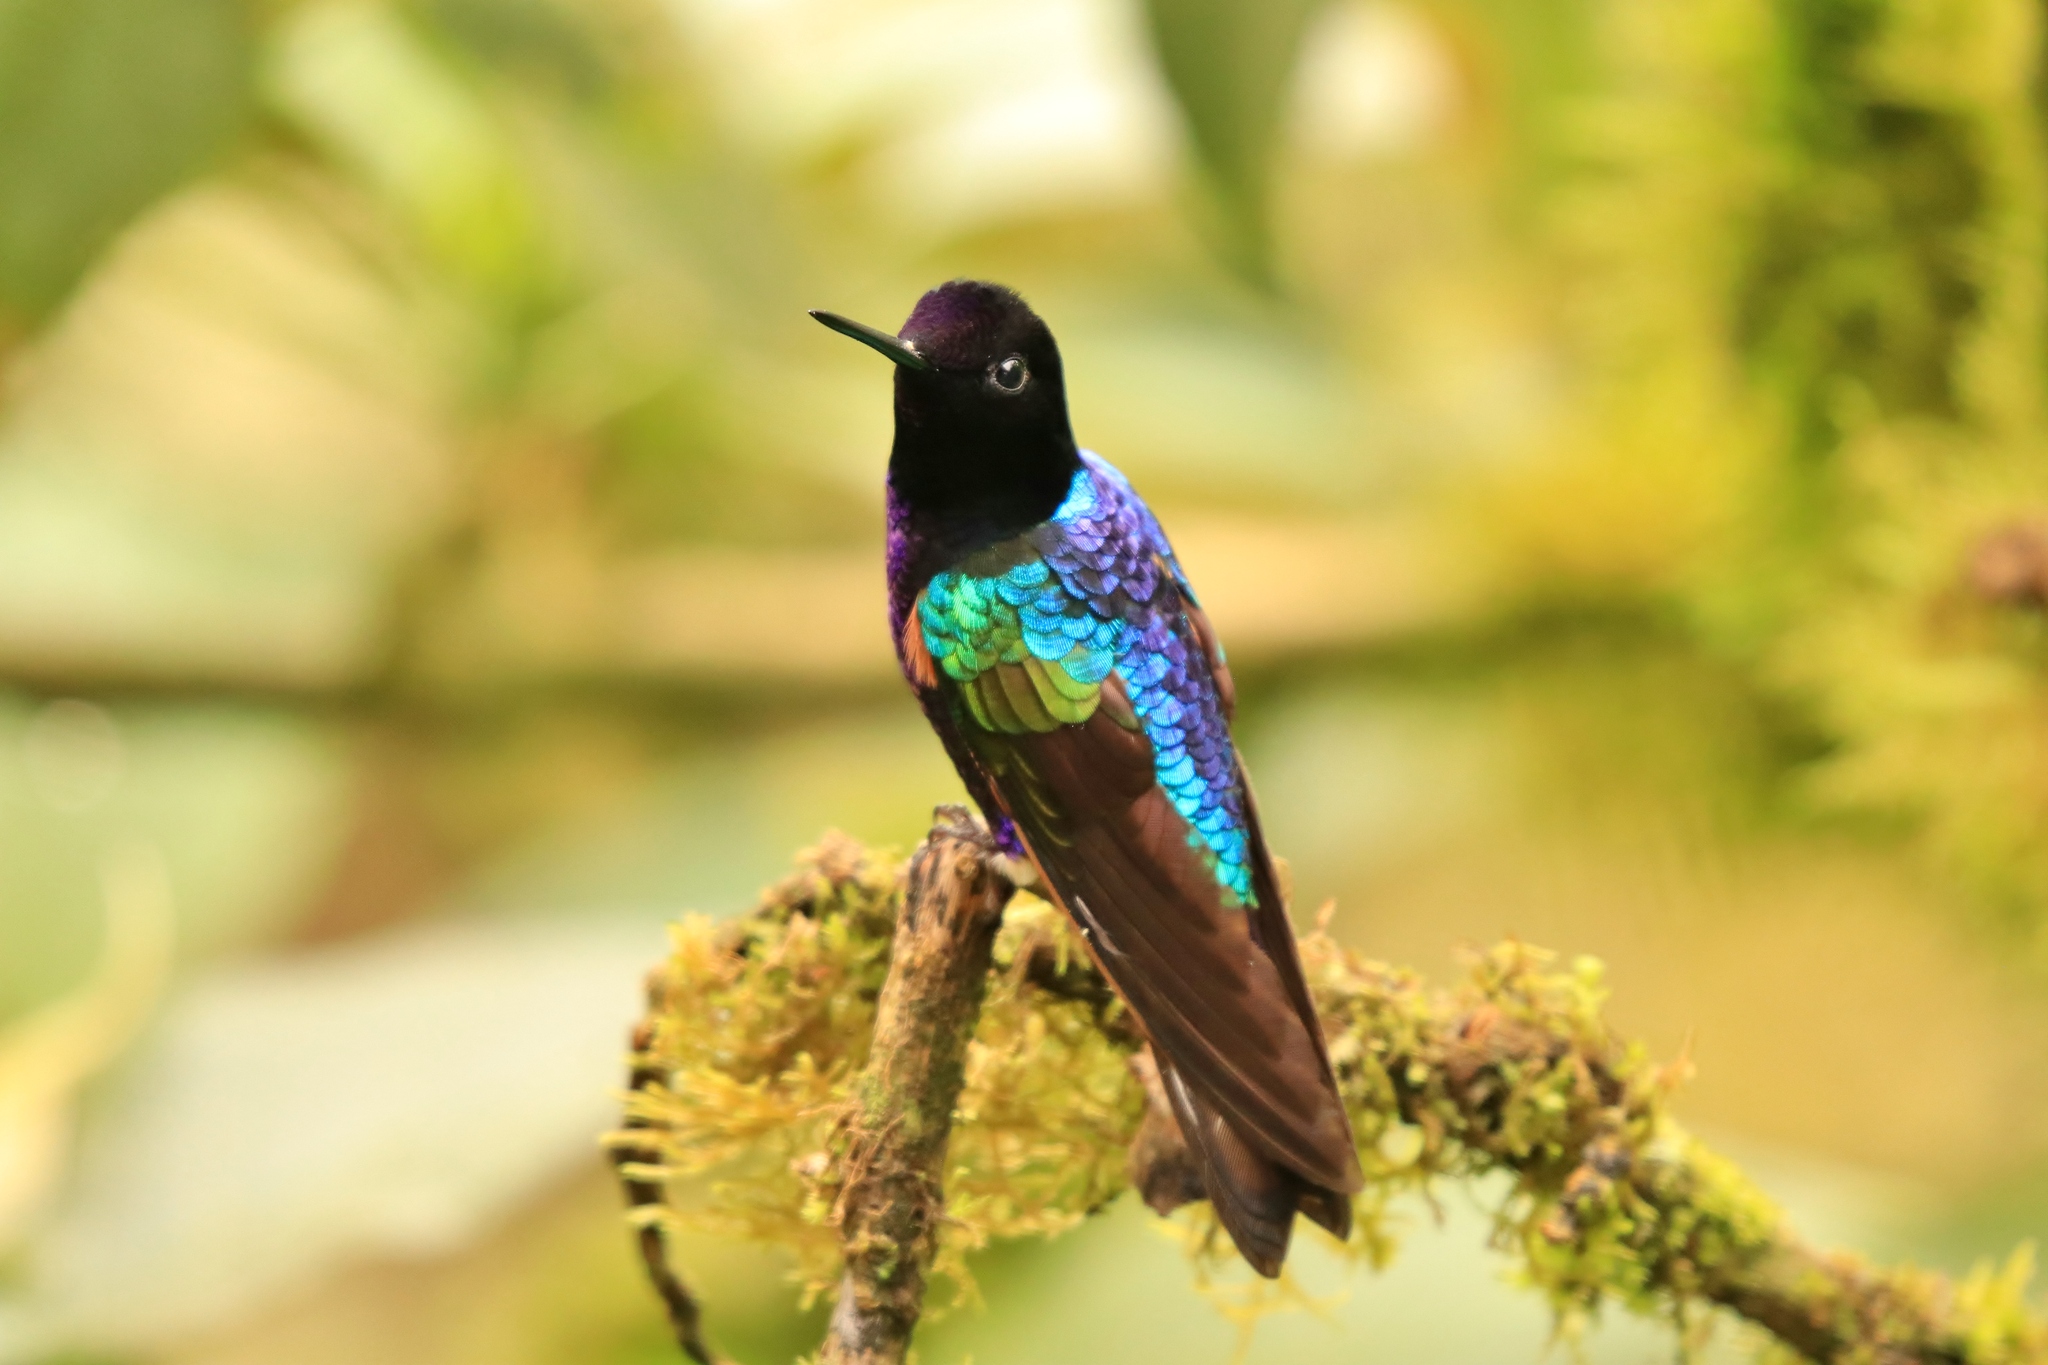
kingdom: Animalia
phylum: Chordata
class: Aves
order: Apodiformes
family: Trochilidae
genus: Boissonneaua
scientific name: Boissonneaua jardini
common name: Velvet-purple coronet
